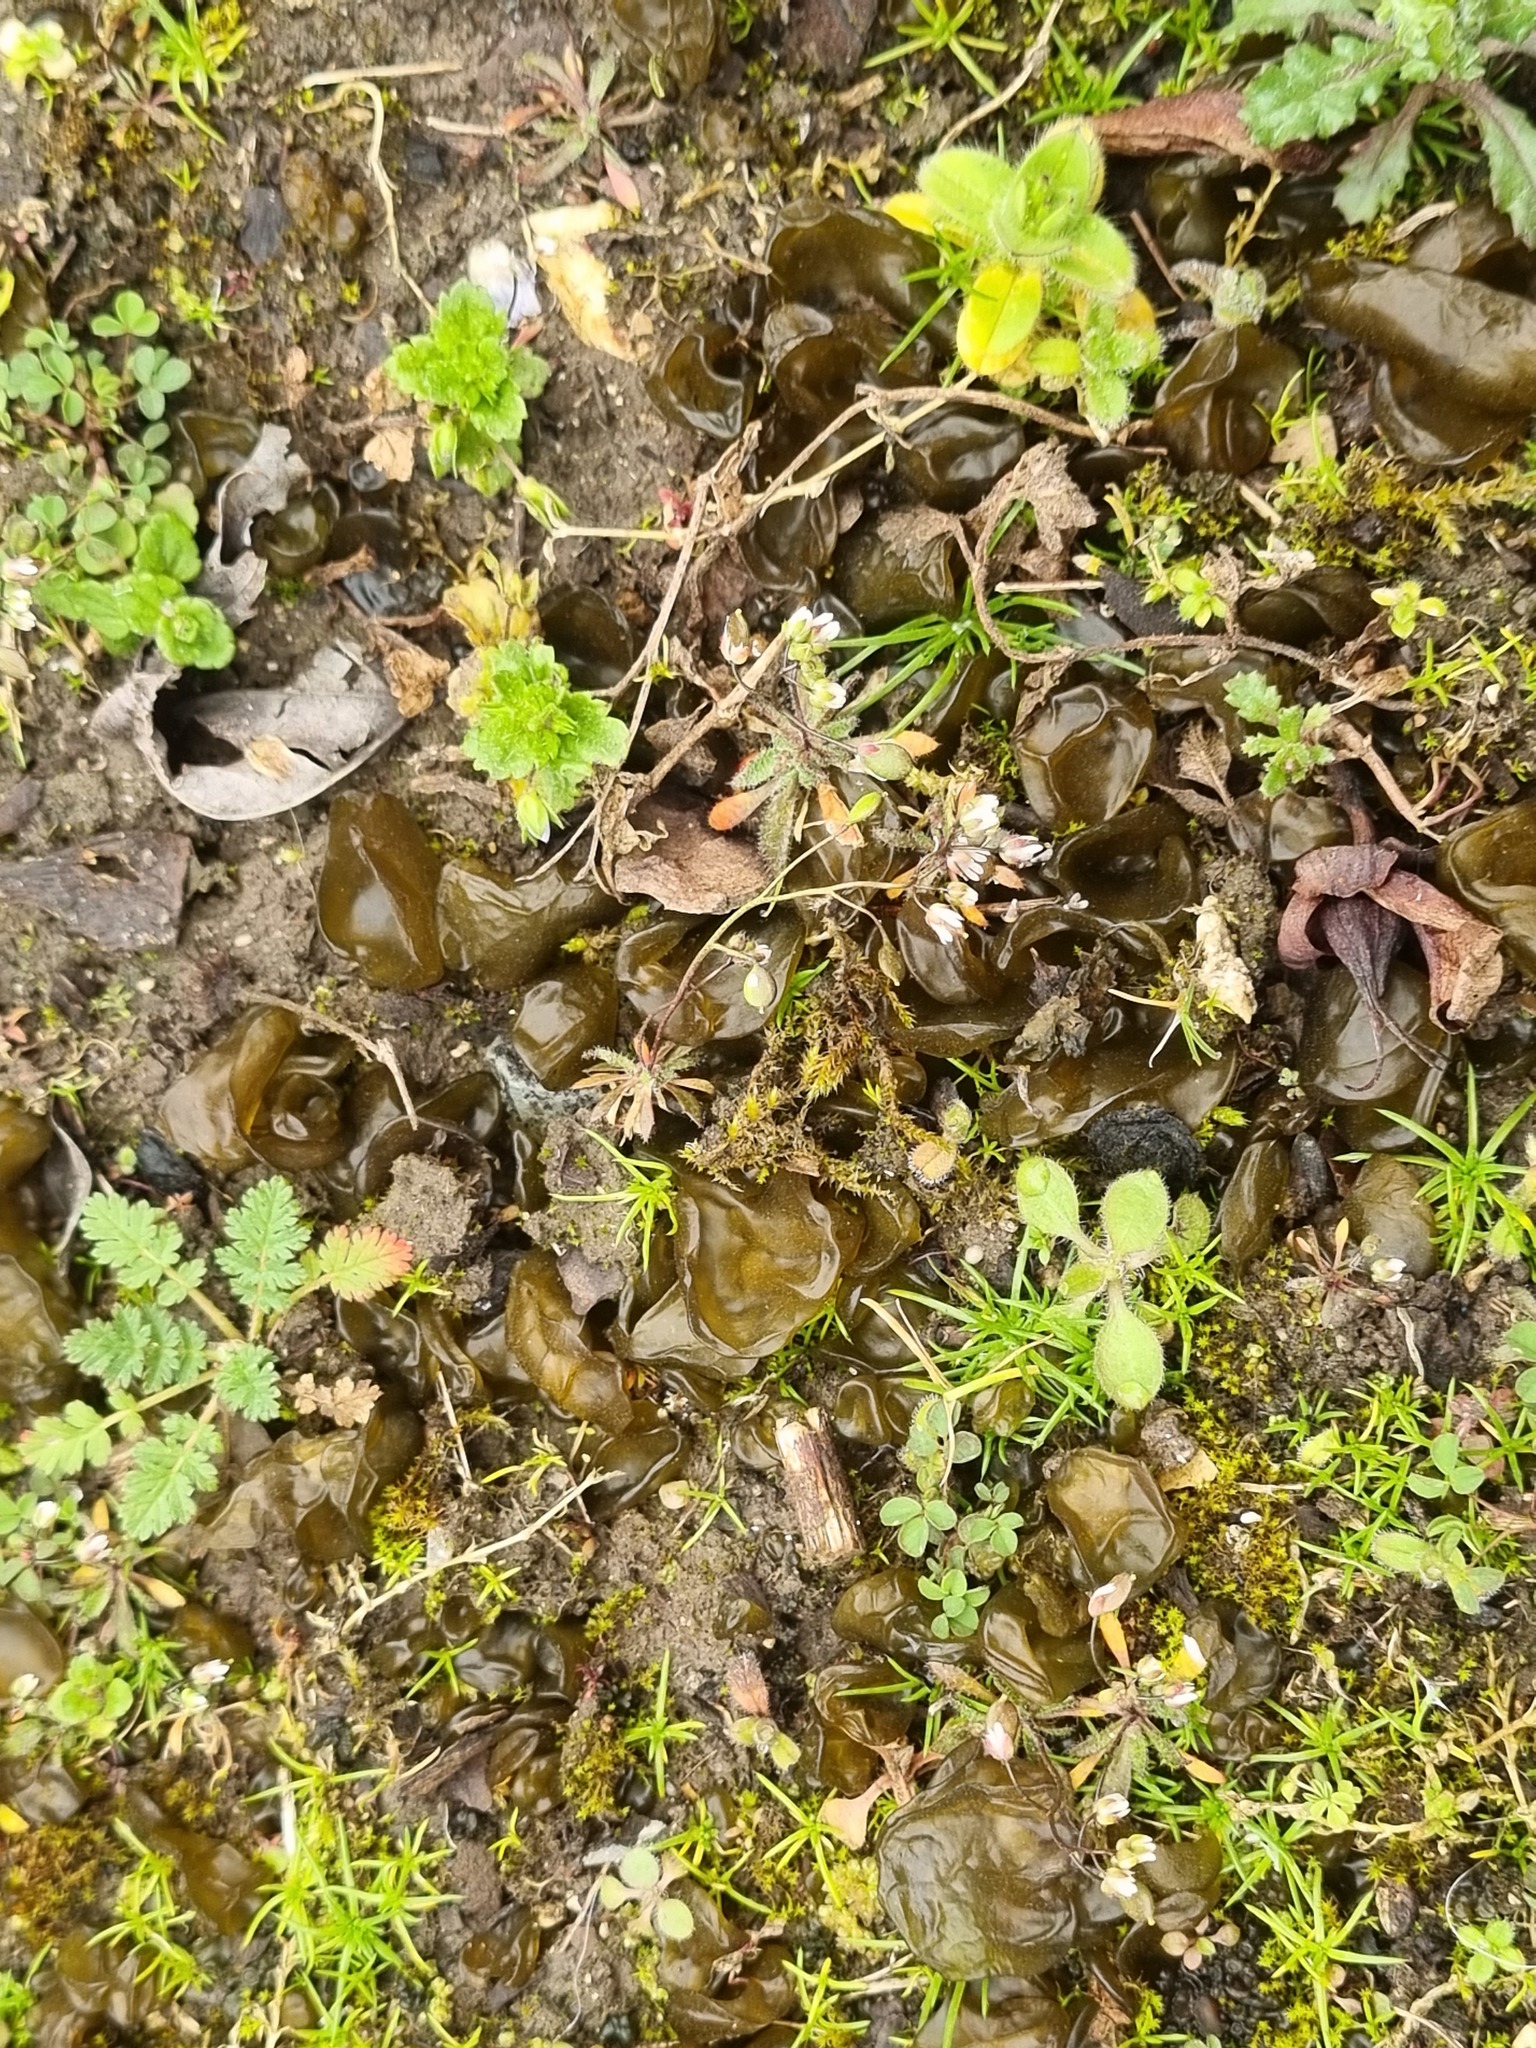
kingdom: Bacteria
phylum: Cyanobacteria
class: Cyanobacteriia
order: Cyanobacteriales
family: Nostocaceae
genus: Nostoc
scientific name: Nostoc commune
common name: Star jelly
